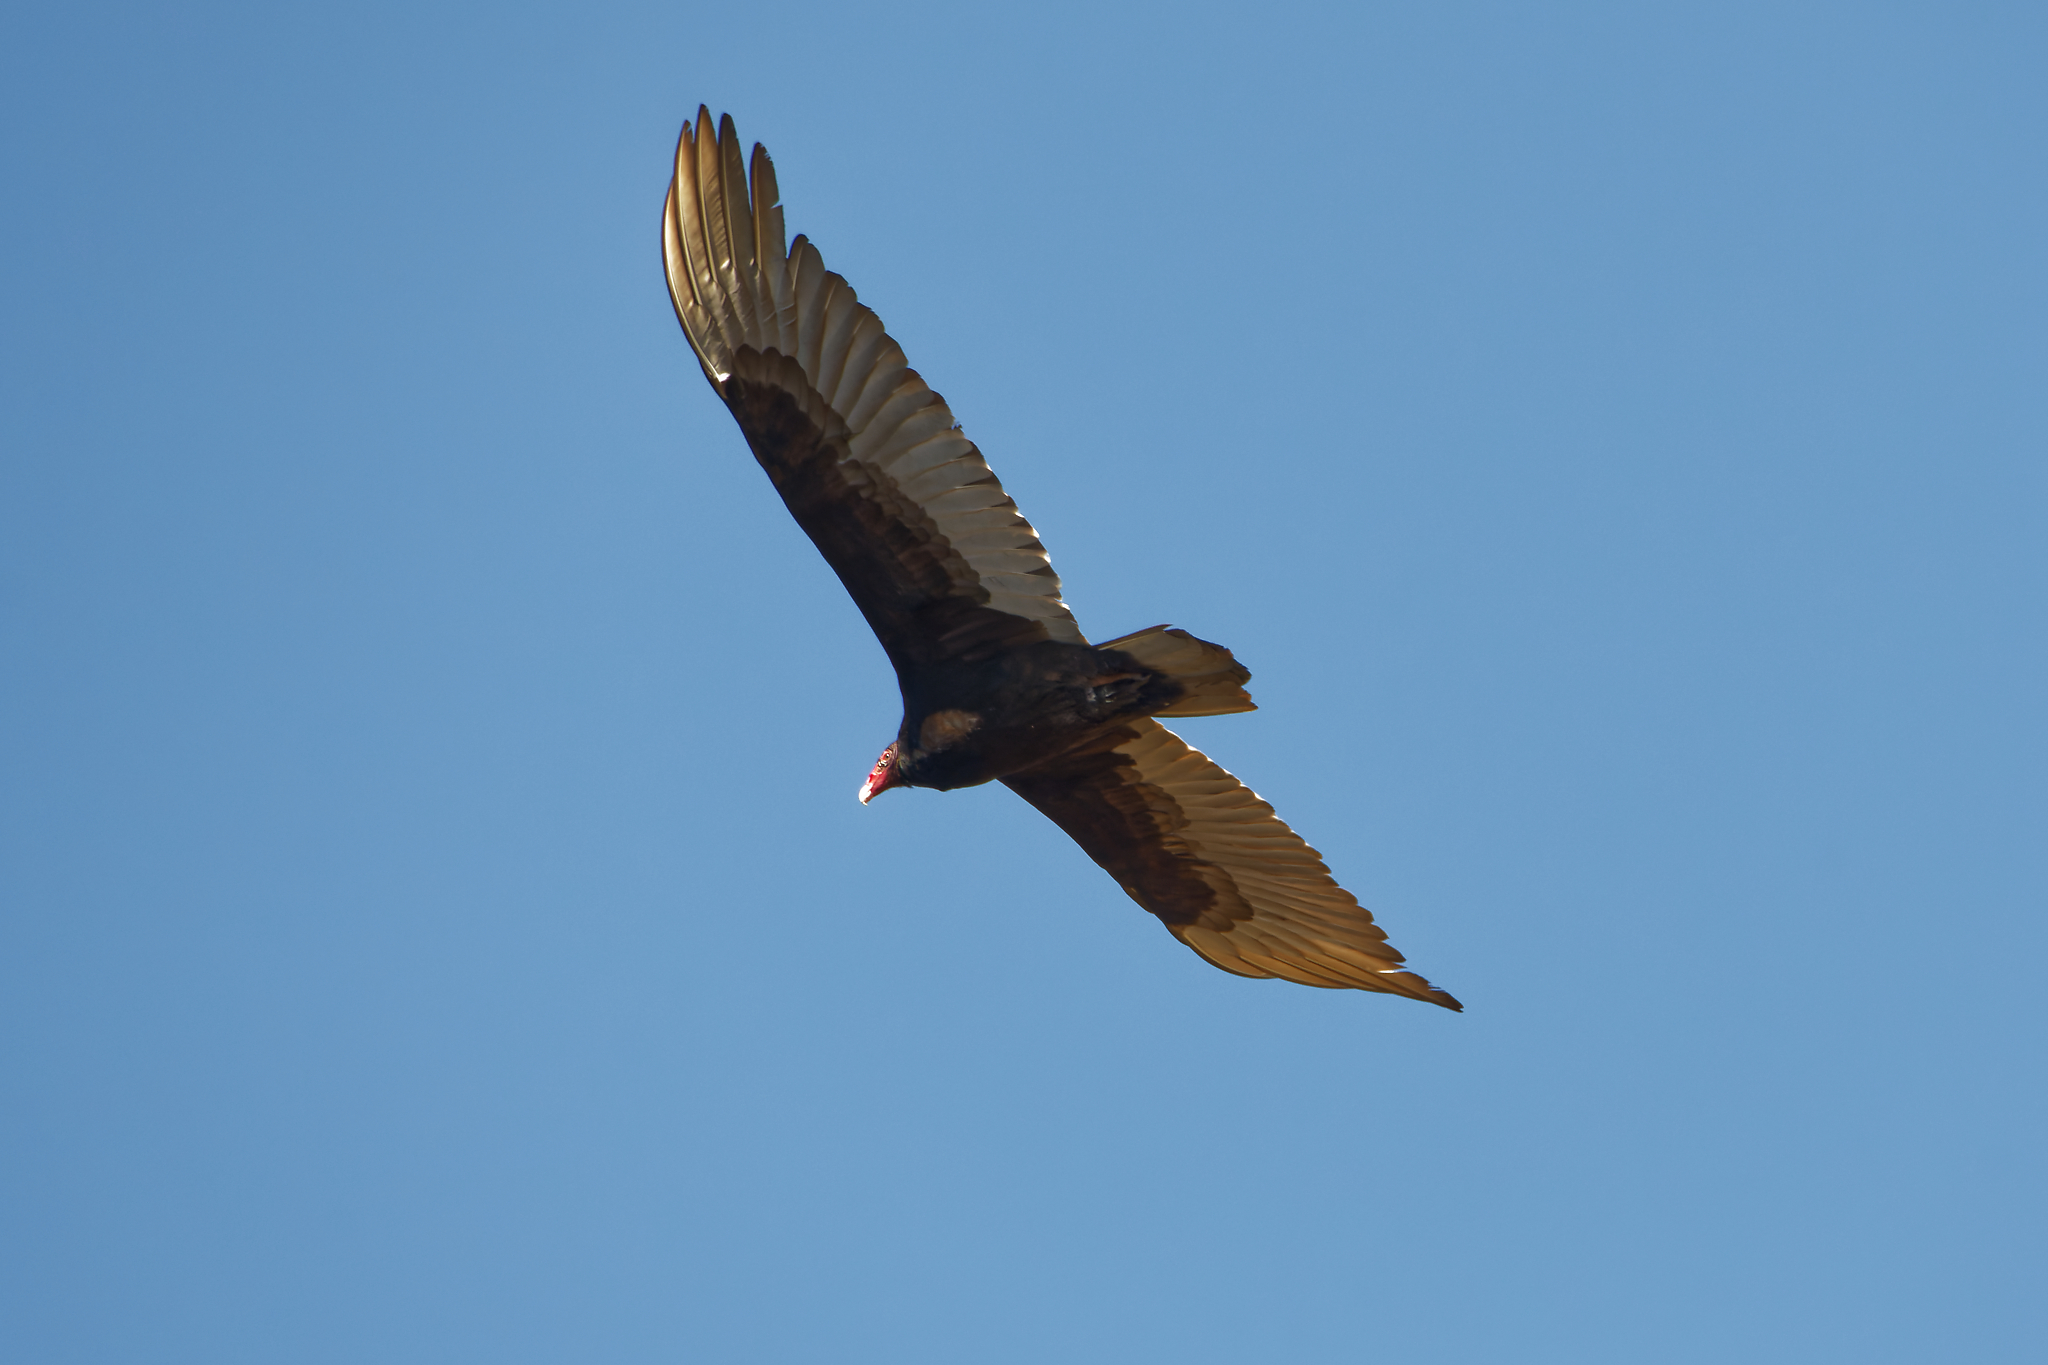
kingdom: Animalia
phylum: Chordata
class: Aves
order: Accipitriformes
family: Cathartidae
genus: Cathartes
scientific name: Cathartes aura
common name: Turkey vulture
